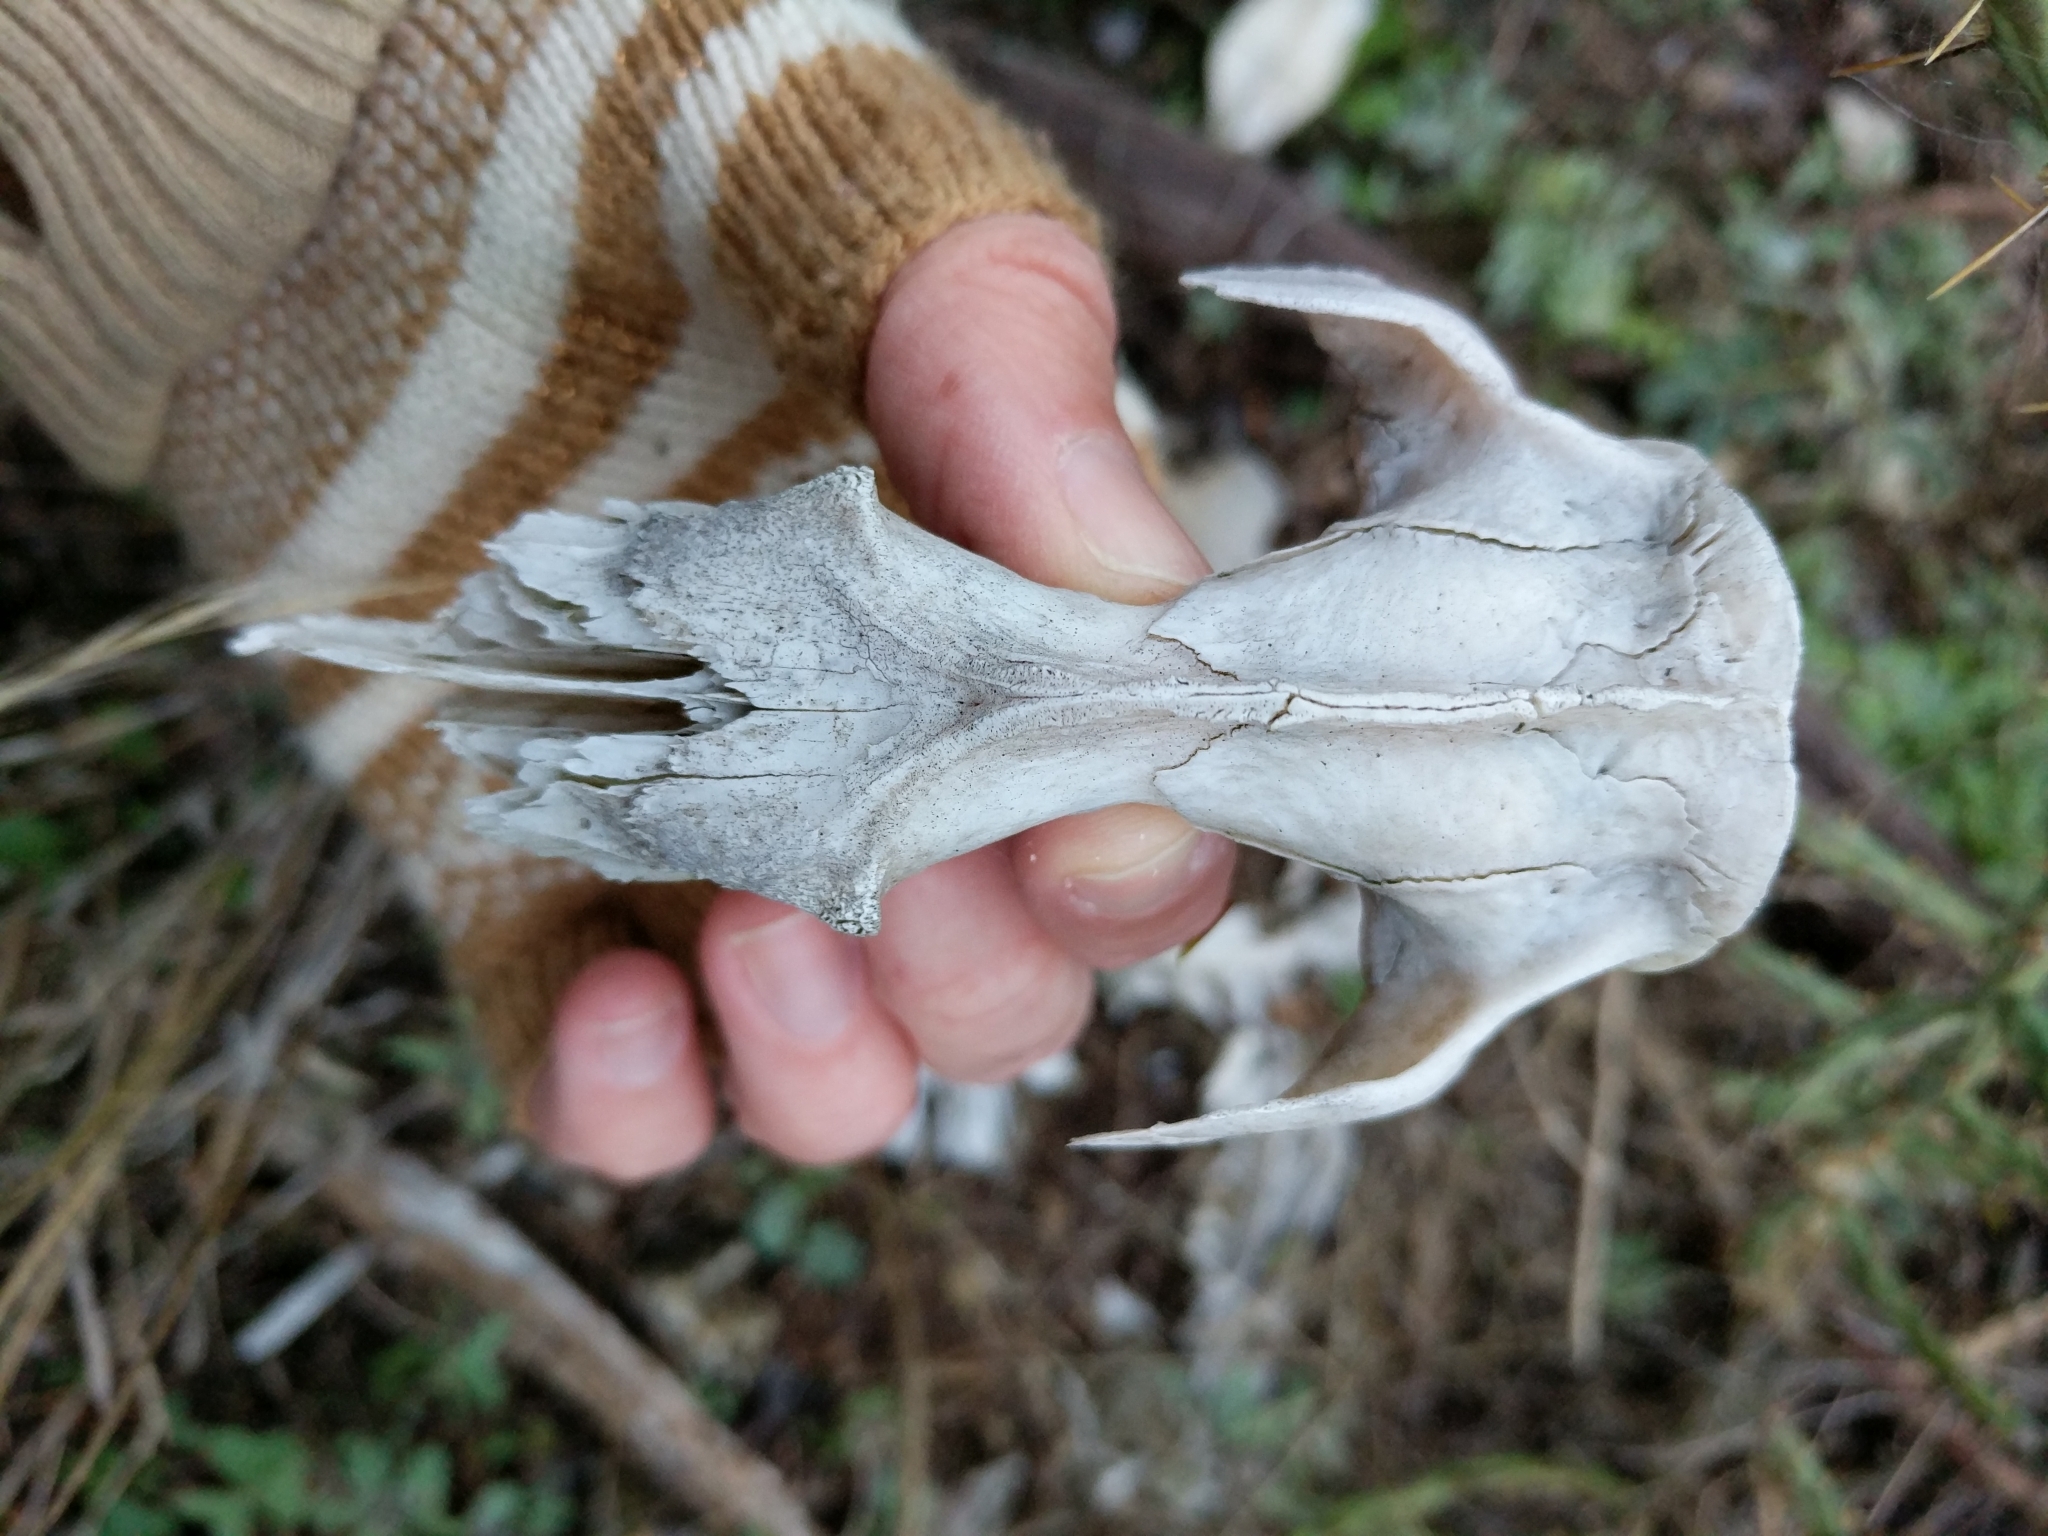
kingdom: Animalia
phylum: Chordata
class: Mammalia
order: Didelphimorphia
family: Didelphidae
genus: Didelphis
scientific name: Didelphis virginiana
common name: Virginia opossum
